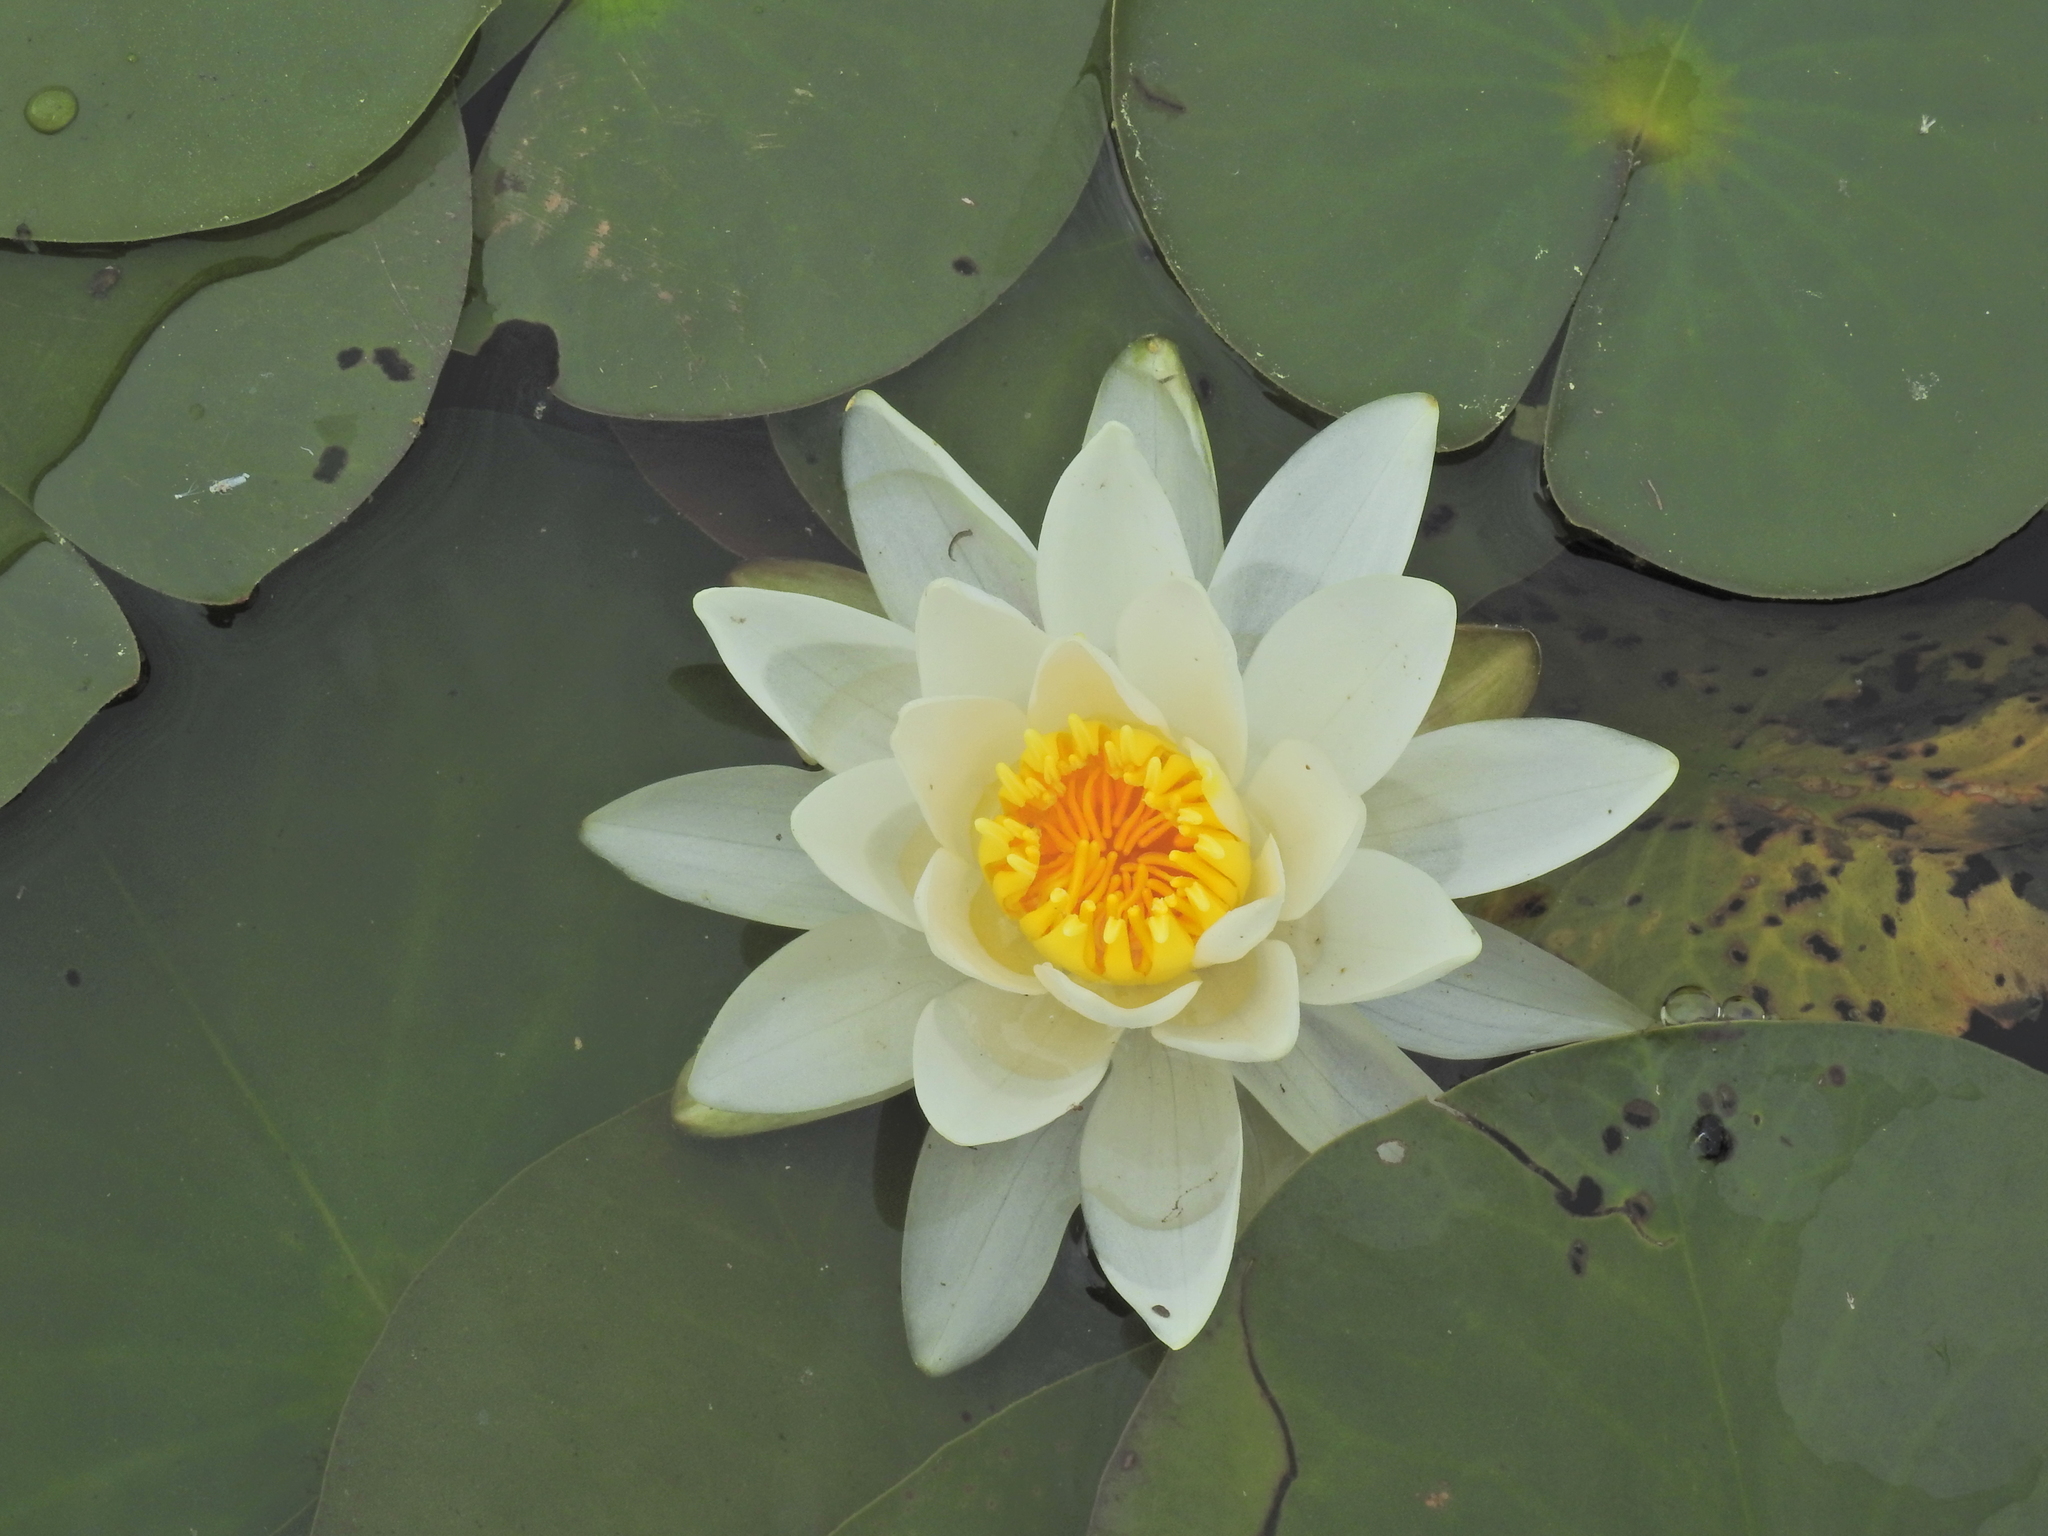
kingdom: Plantae
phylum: Tracheophyta
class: Magnoliopsida
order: Nymphaeales
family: Nymphaeaceae
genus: Nymphaea
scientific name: Nymphaea odorata
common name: Fragrant water-lily
